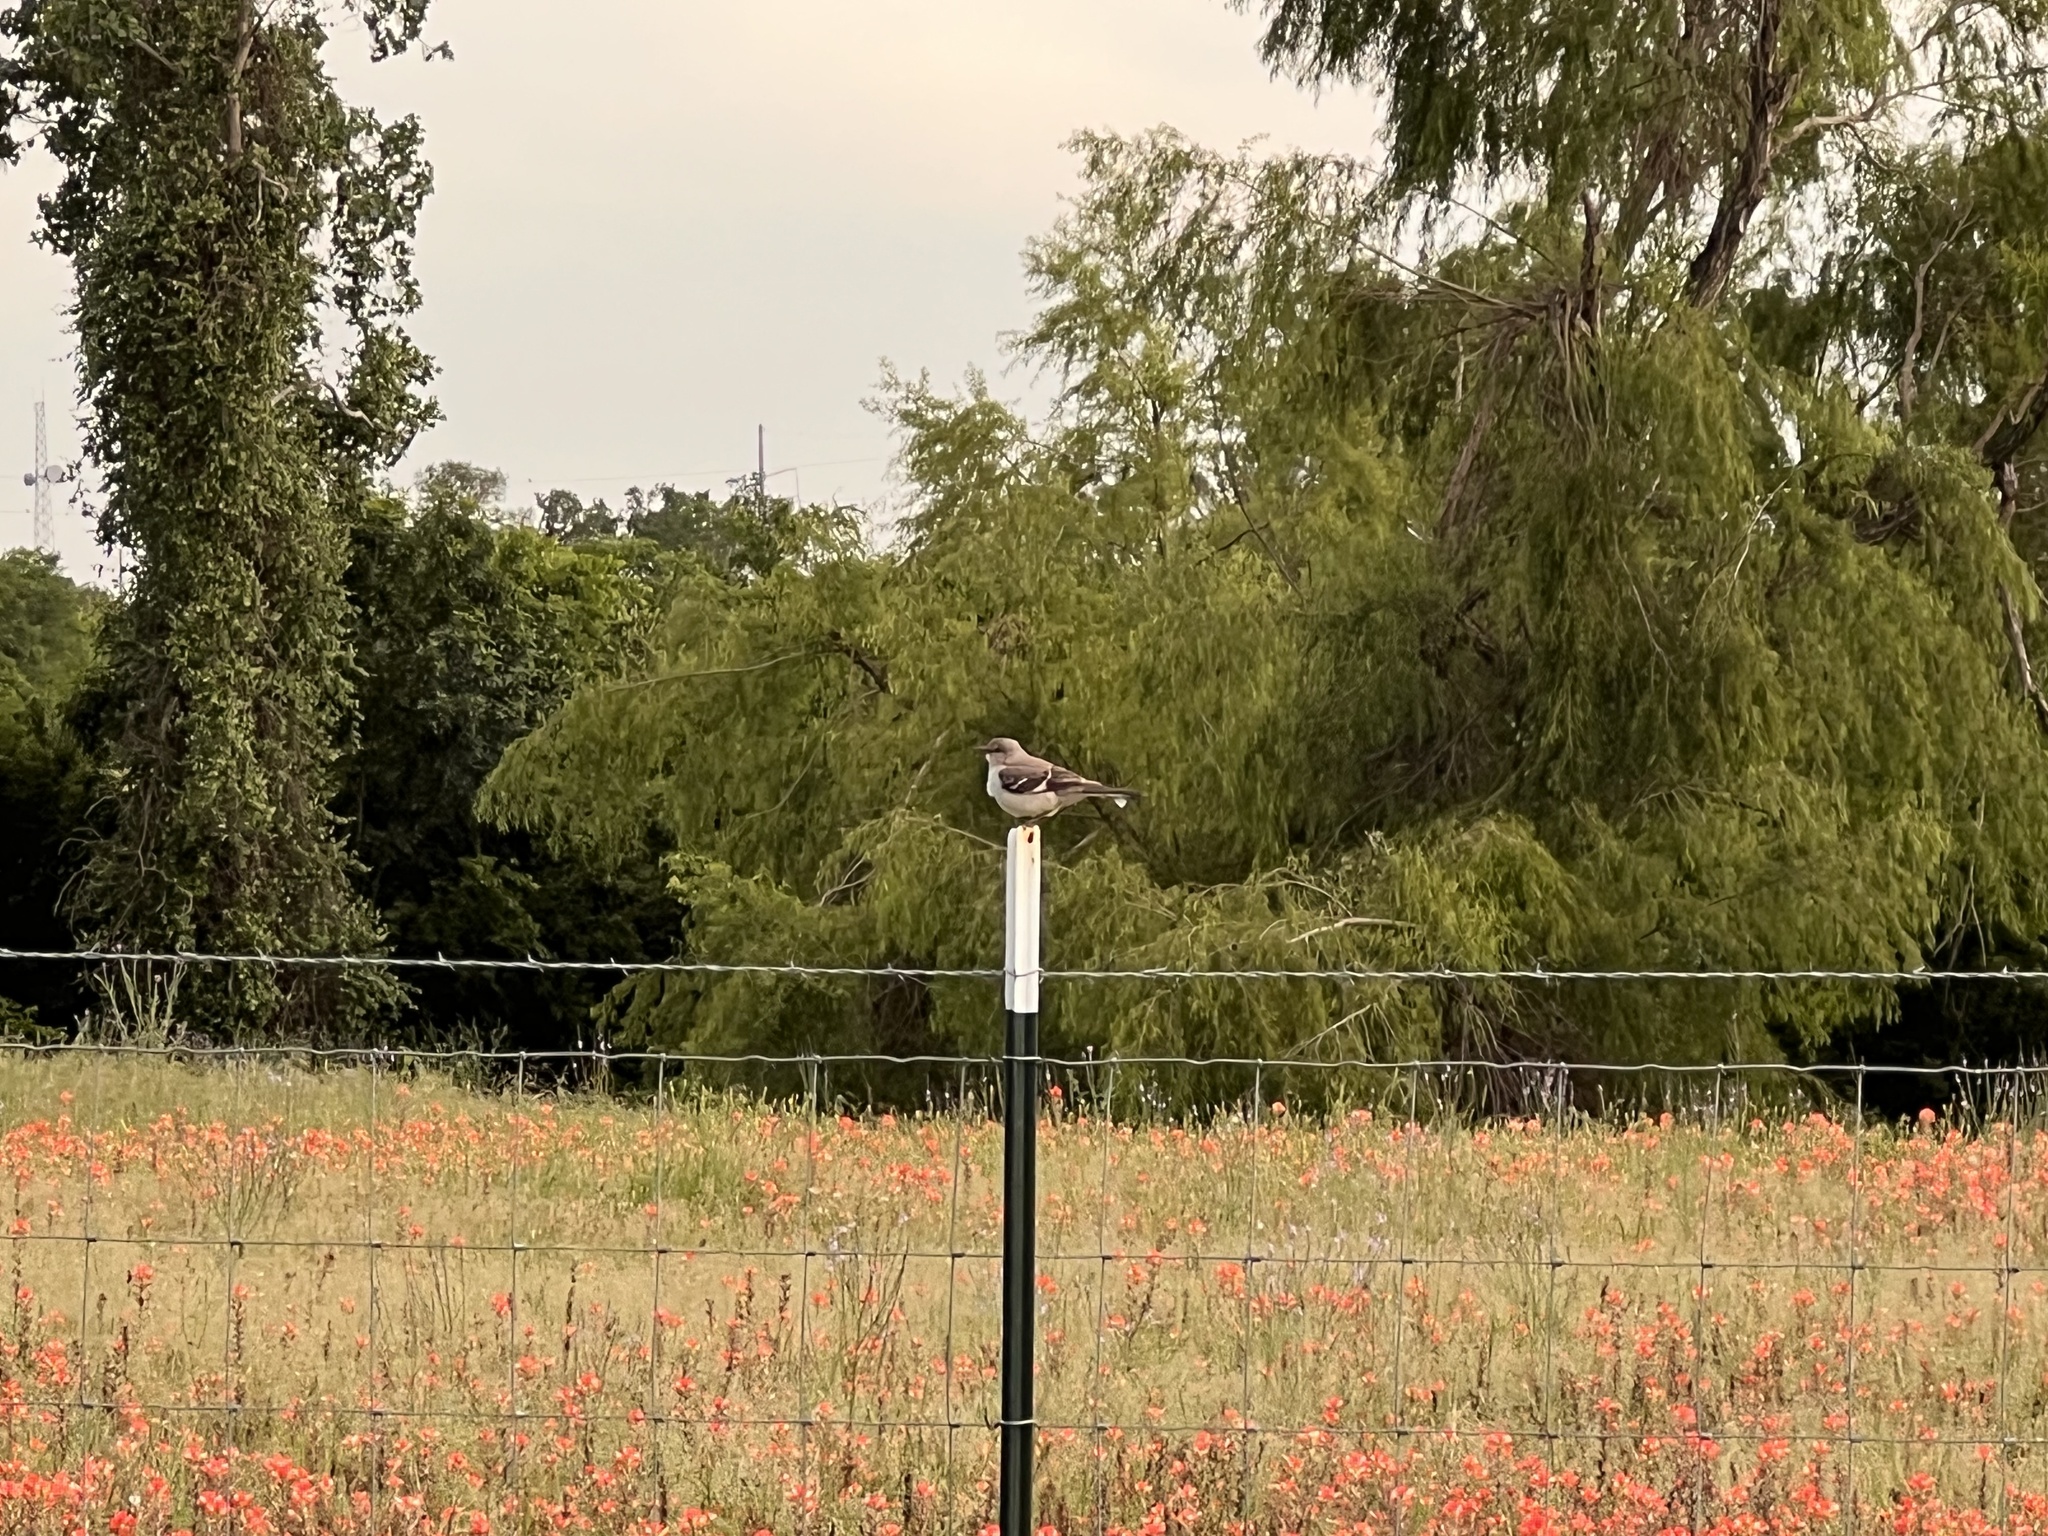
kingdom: Animalia
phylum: Chordata
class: Aves
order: Passeriformes
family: Mimidae
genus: Mimus
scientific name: Mimus polyglottos
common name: Northern mockingbird
